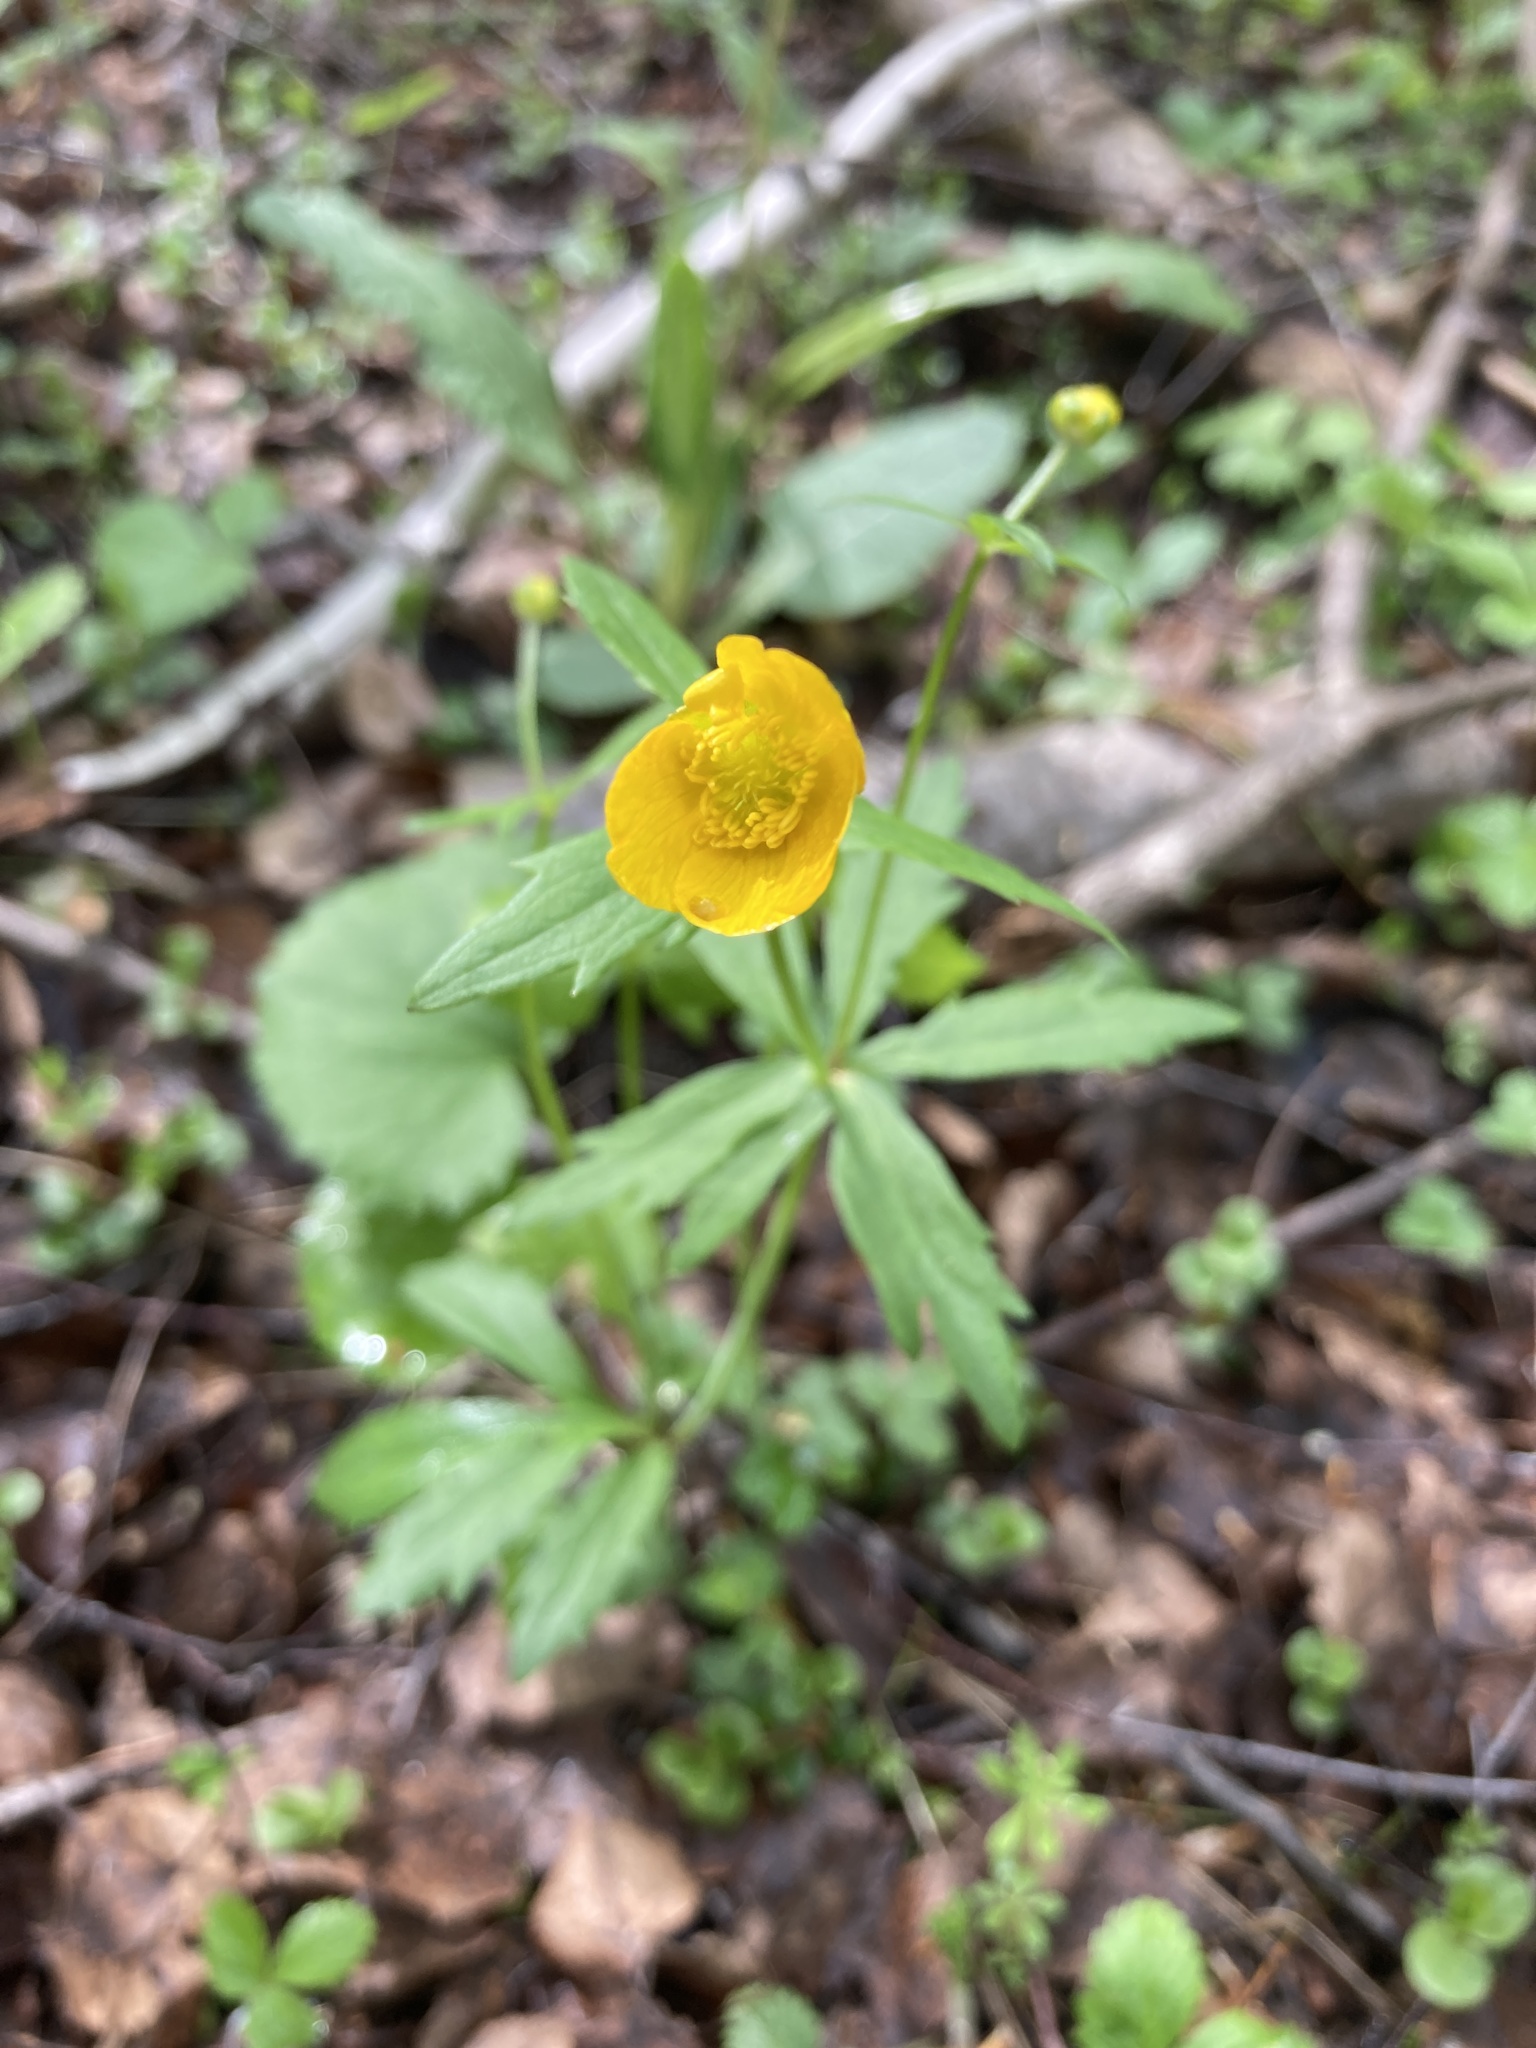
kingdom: Plantae
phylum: Tracheophyta
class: Magnoliopsida
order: Ranunculales
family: Ranunculaceae
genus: Ranunculus
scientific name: Ranunculus cassubicus
